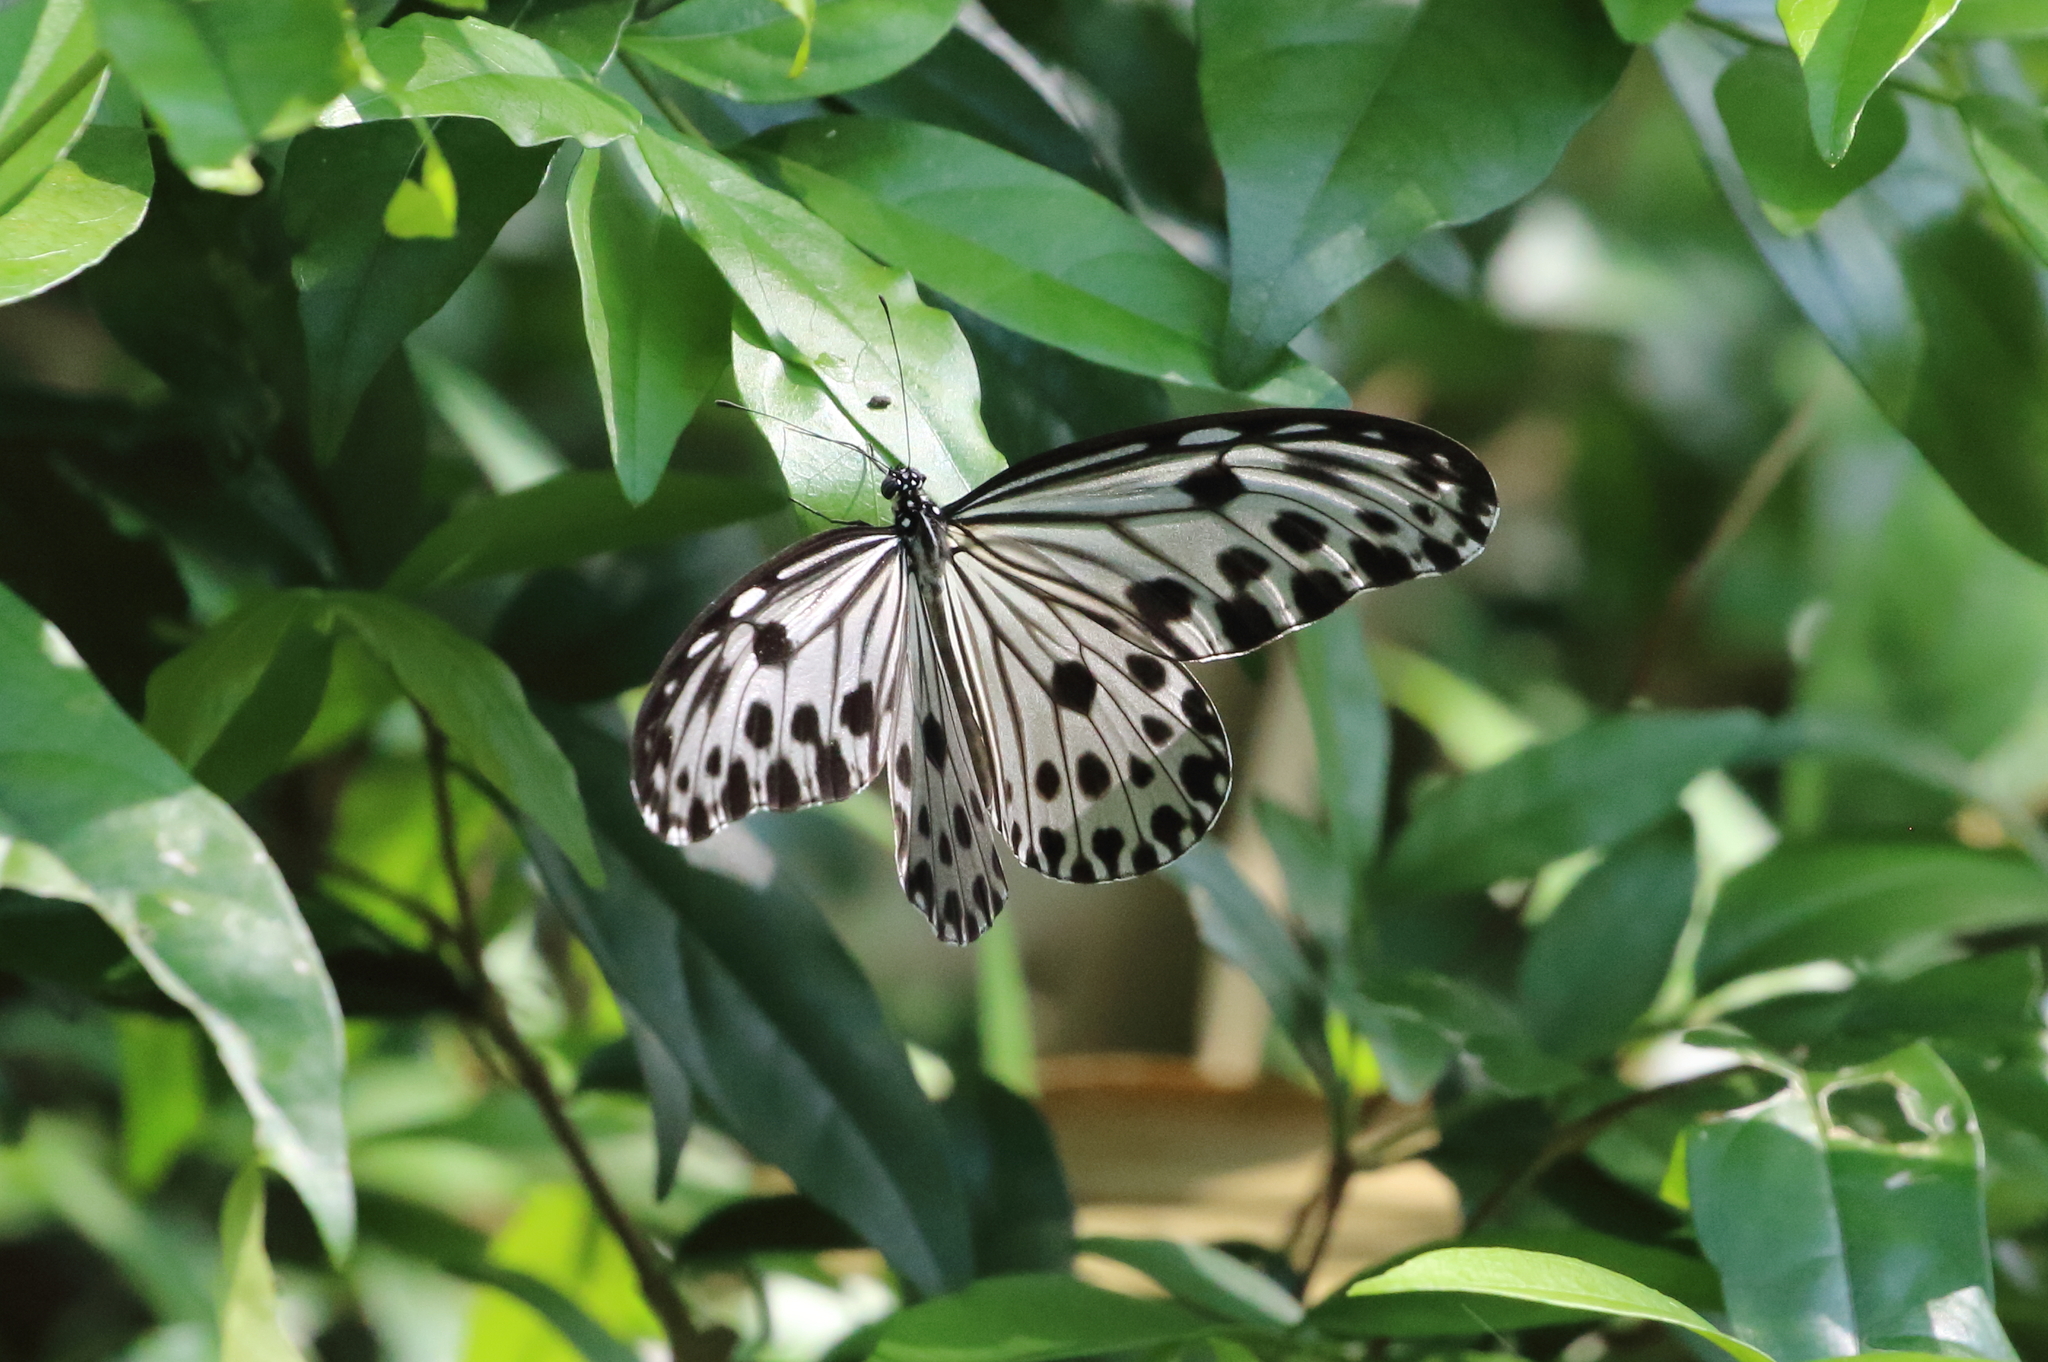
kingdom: Animalia
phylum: Arthropoda
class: Insecta
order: Lepidoptera
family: Nymphalidae
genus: Ideopsis
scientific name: Ideopsis gaura
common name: Smaller wood nymph
